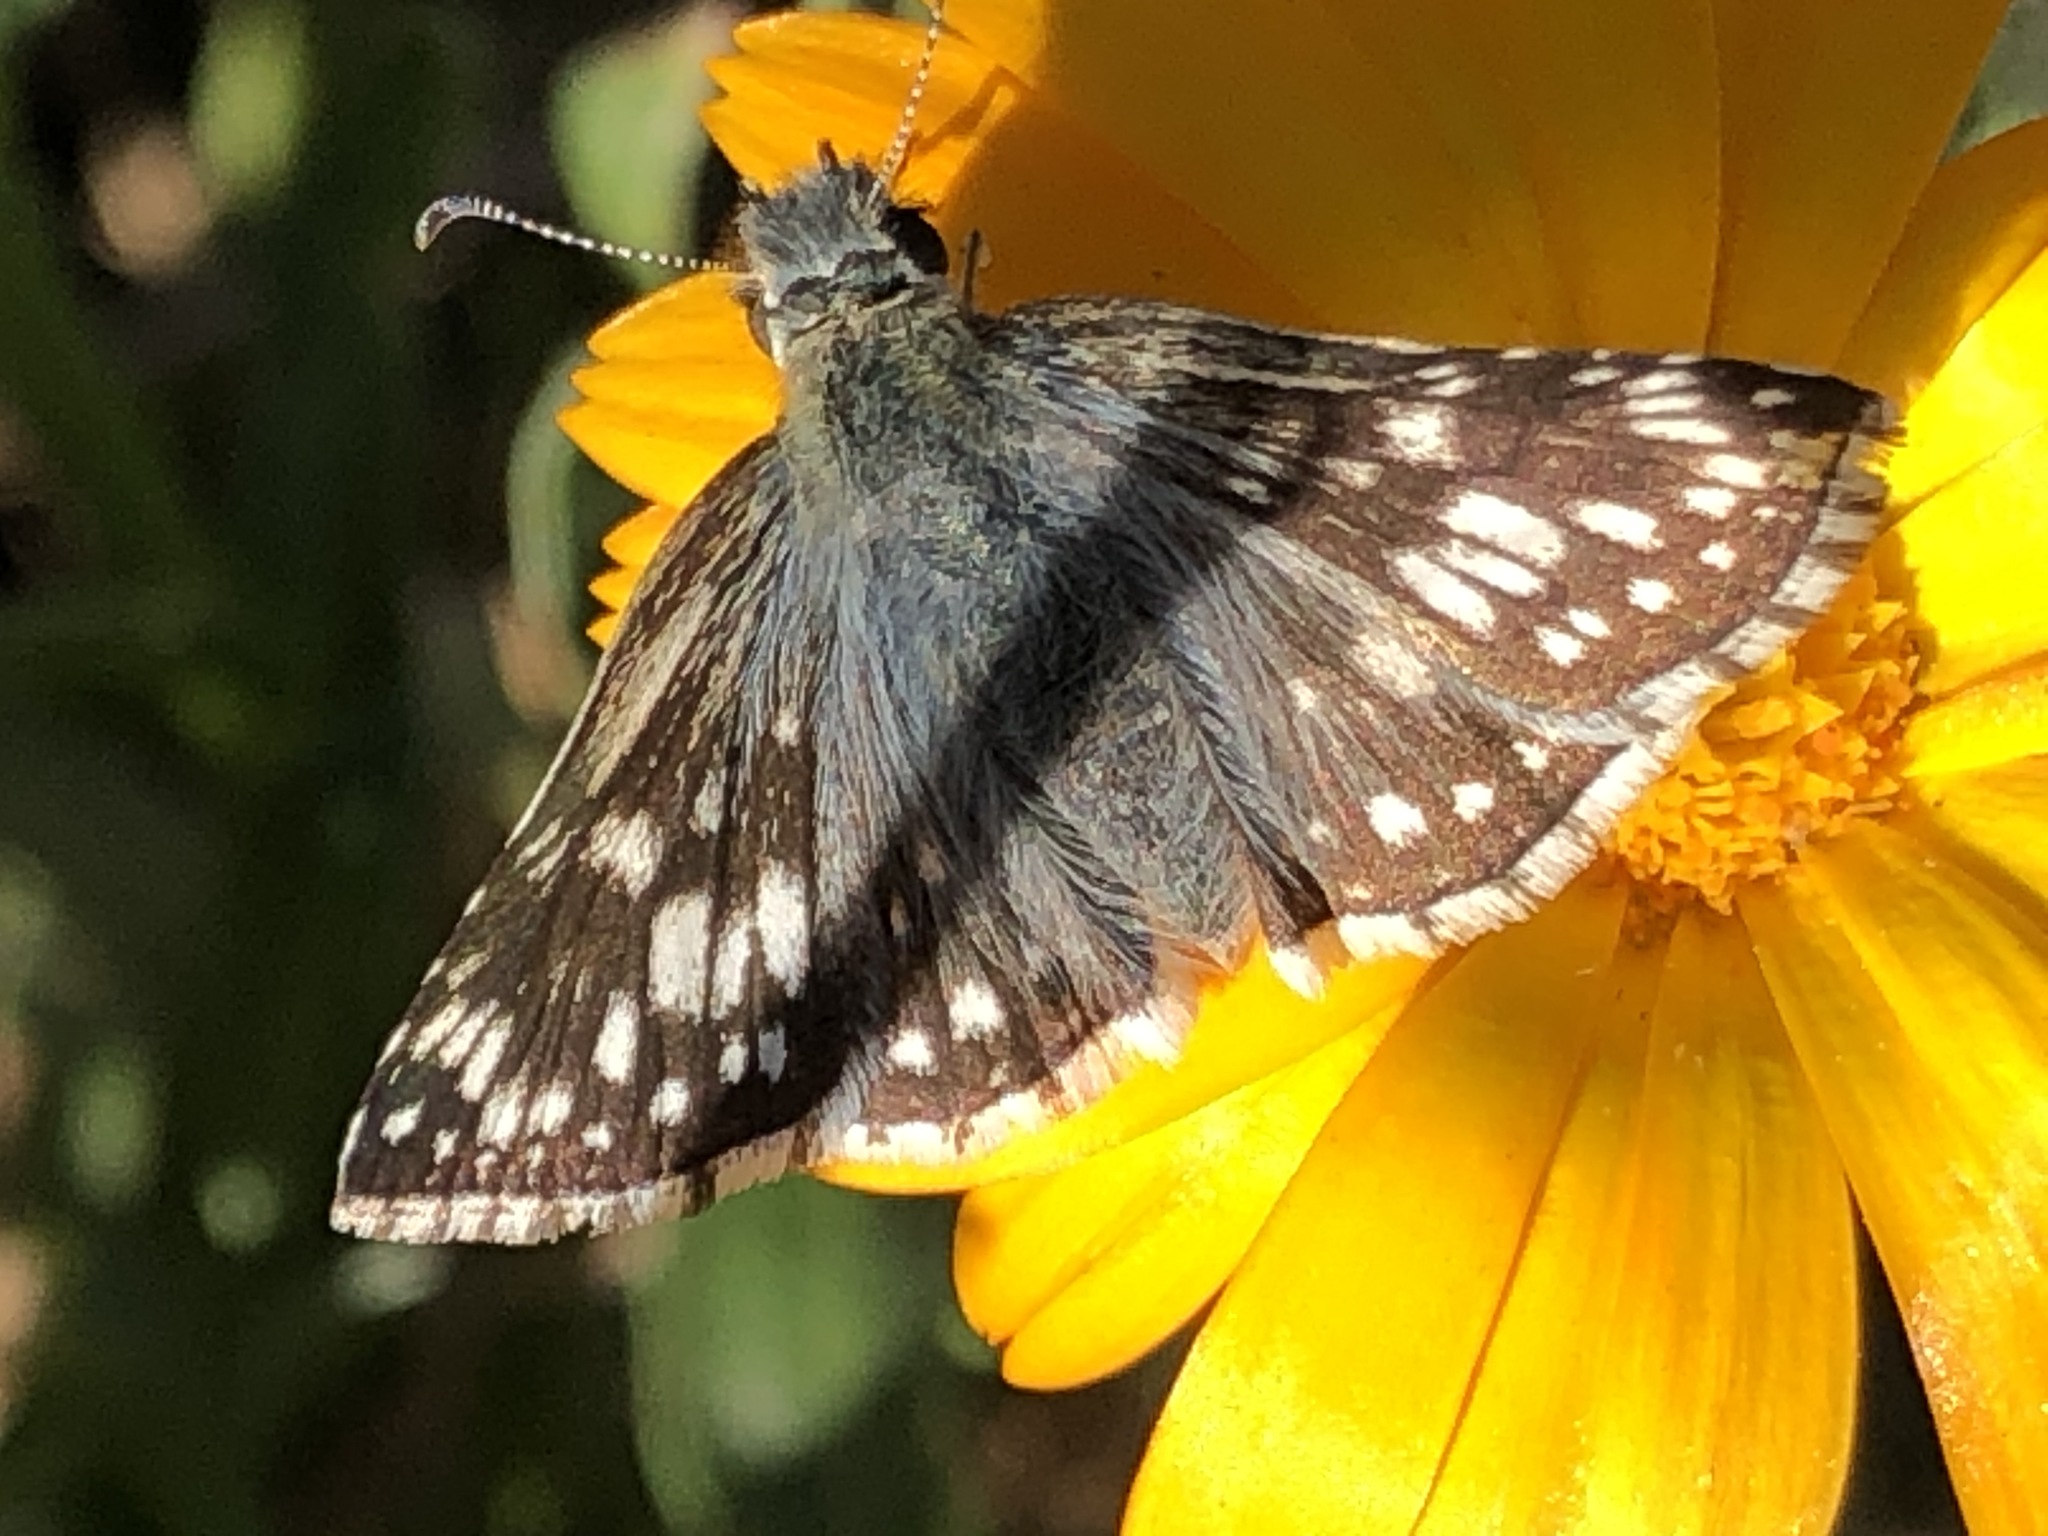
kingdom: Animalia
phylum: Arthropoda
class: Insecta
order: Lepidoptera
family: Hesperiidae
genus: Burnsius
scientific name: Burnsius communis
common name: Common checkered-skipper
